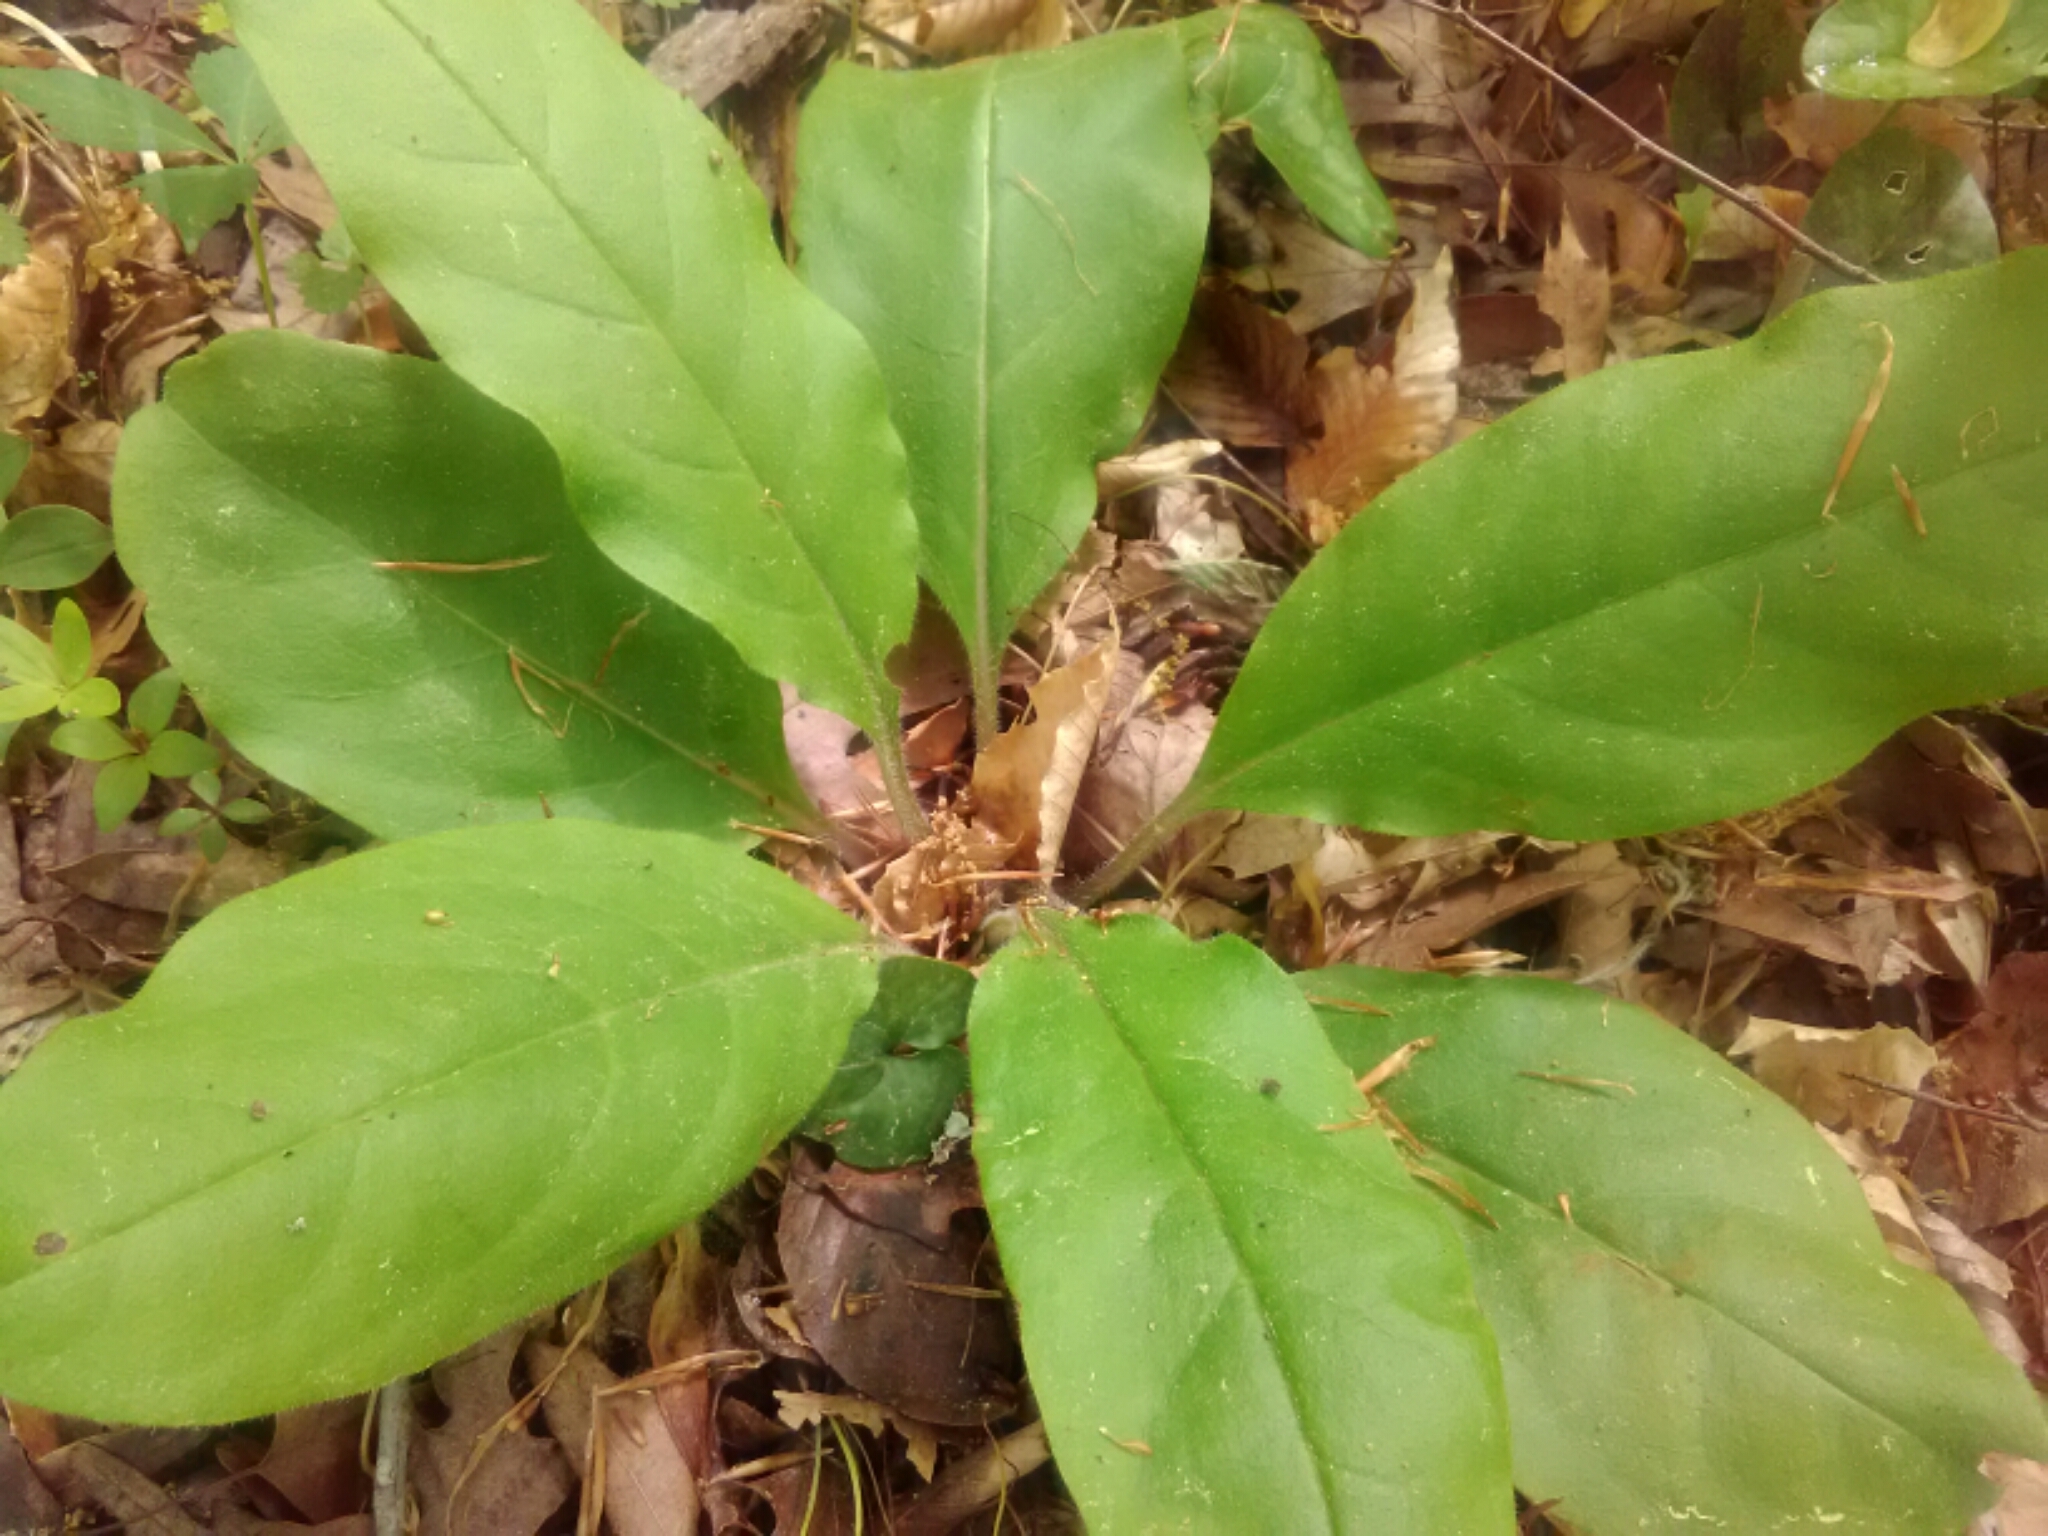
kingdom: Plantae
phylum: Tracheophyta
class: Magnoliopsida
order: Boraginales
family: Boraginaceae
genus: Andersonglossum
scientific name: Andersonglossum virginianum
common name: Wild comfrey
